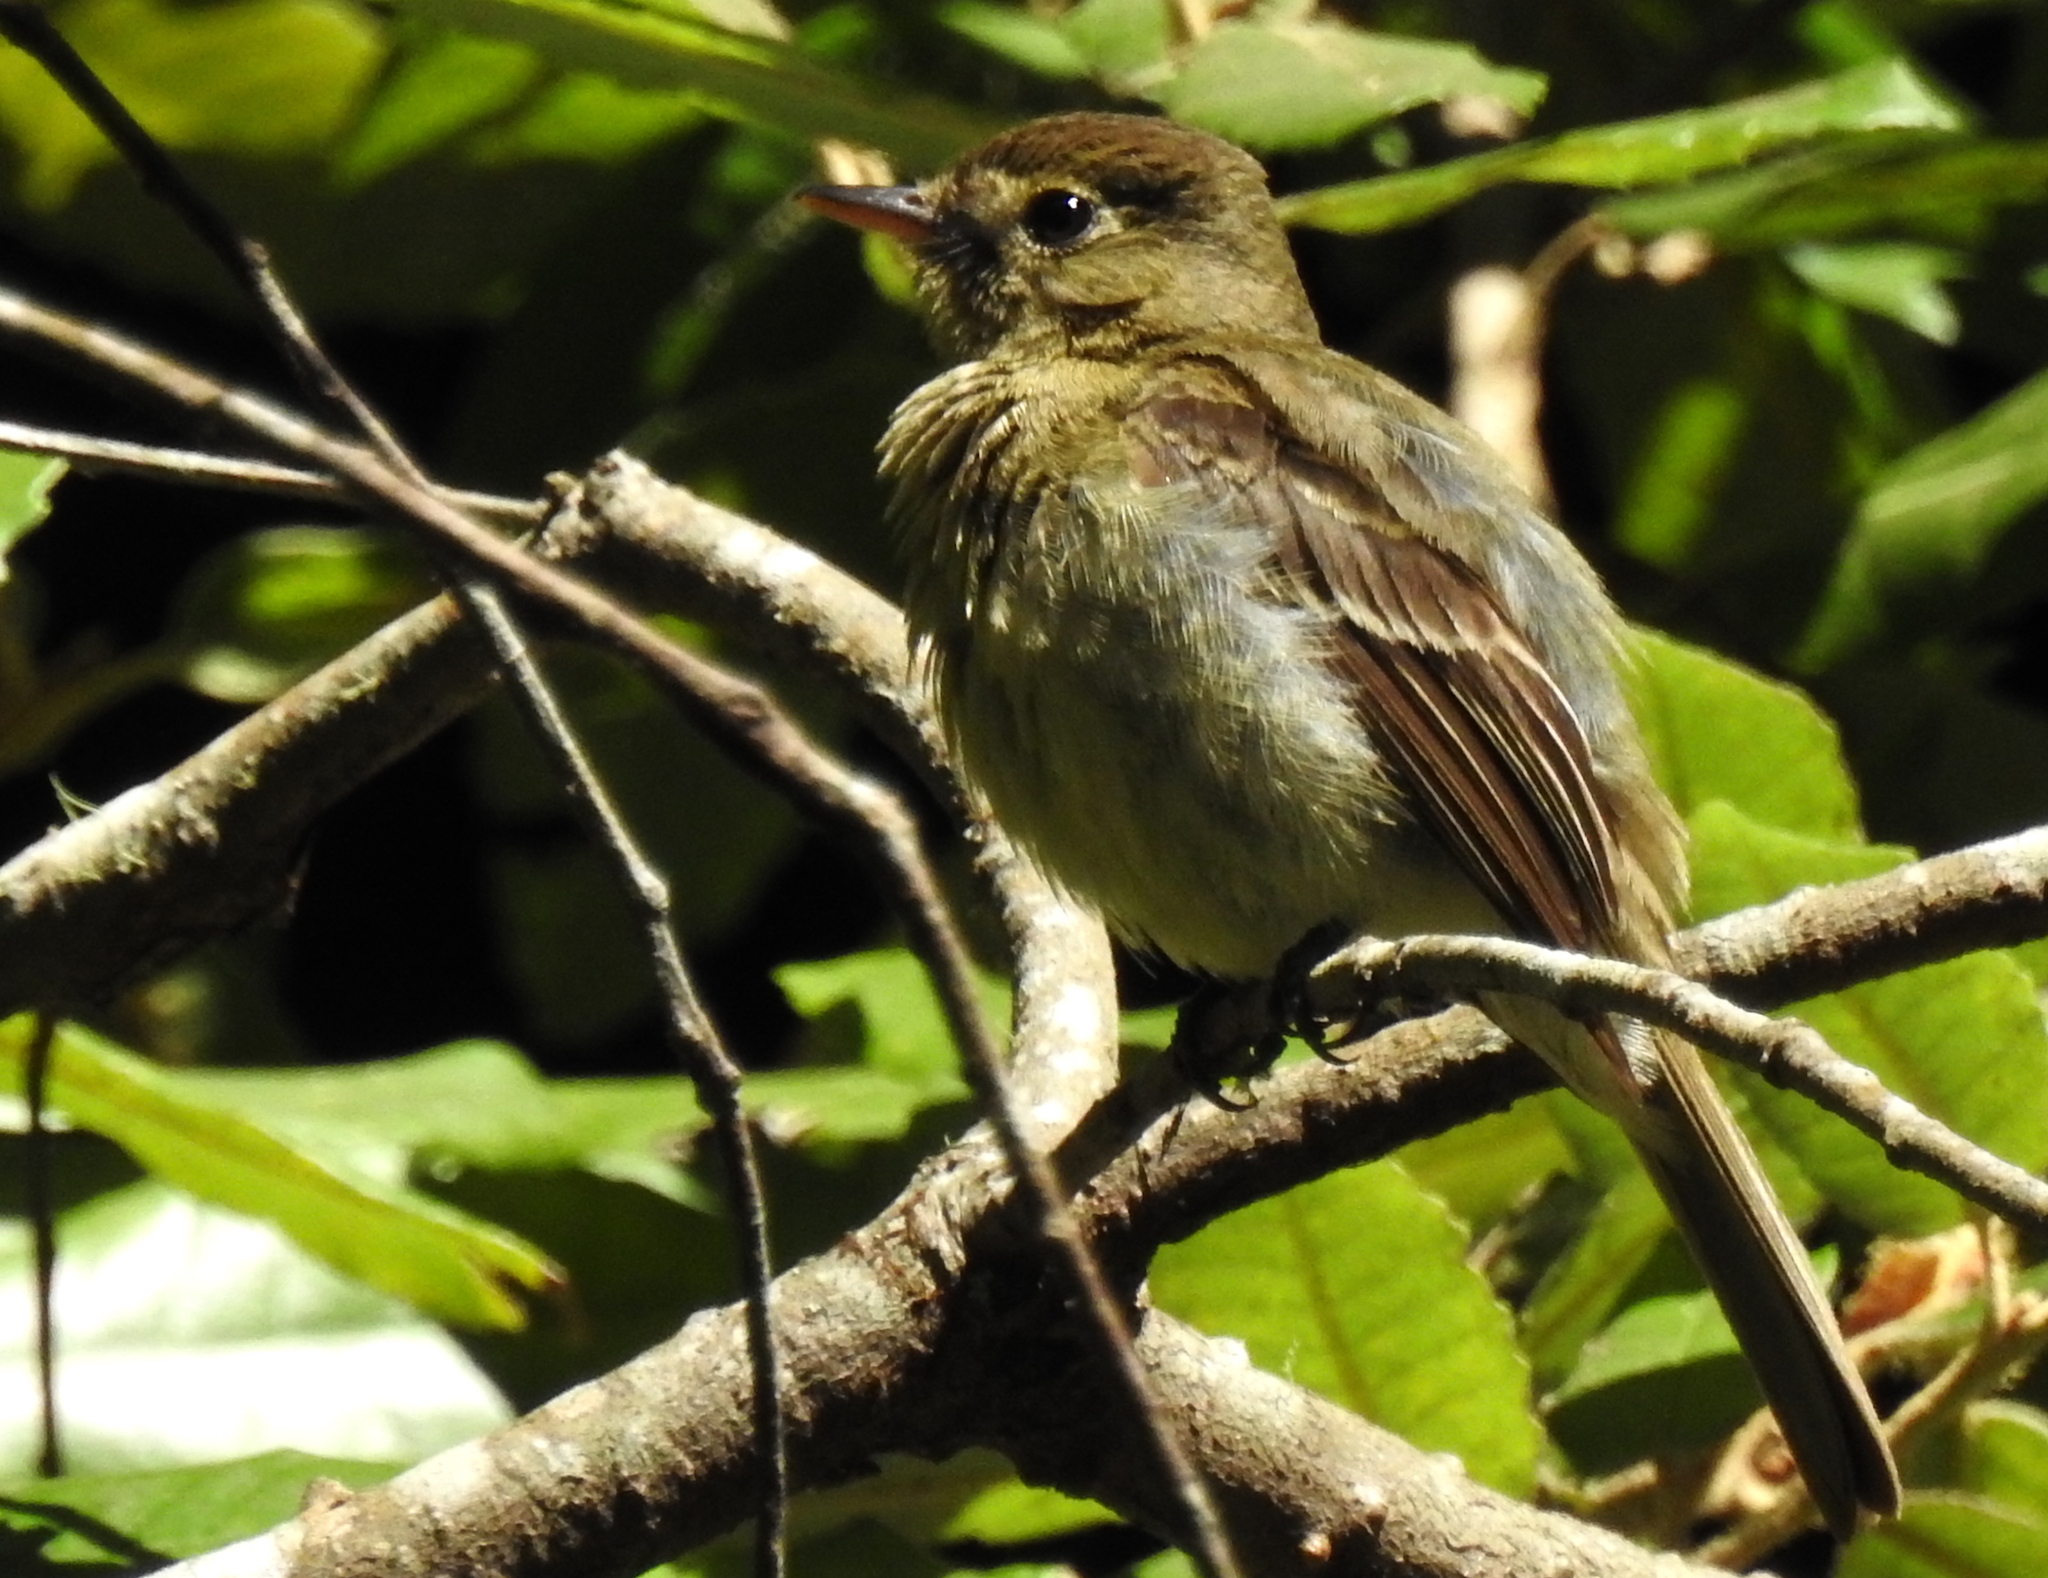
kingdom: Animalia
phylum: Chordata
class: Aves
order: Passeriformes
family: Tyrannidae
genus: Empidonax
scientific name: Empidonax difficilis
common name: Pacific-slope flycatcher
